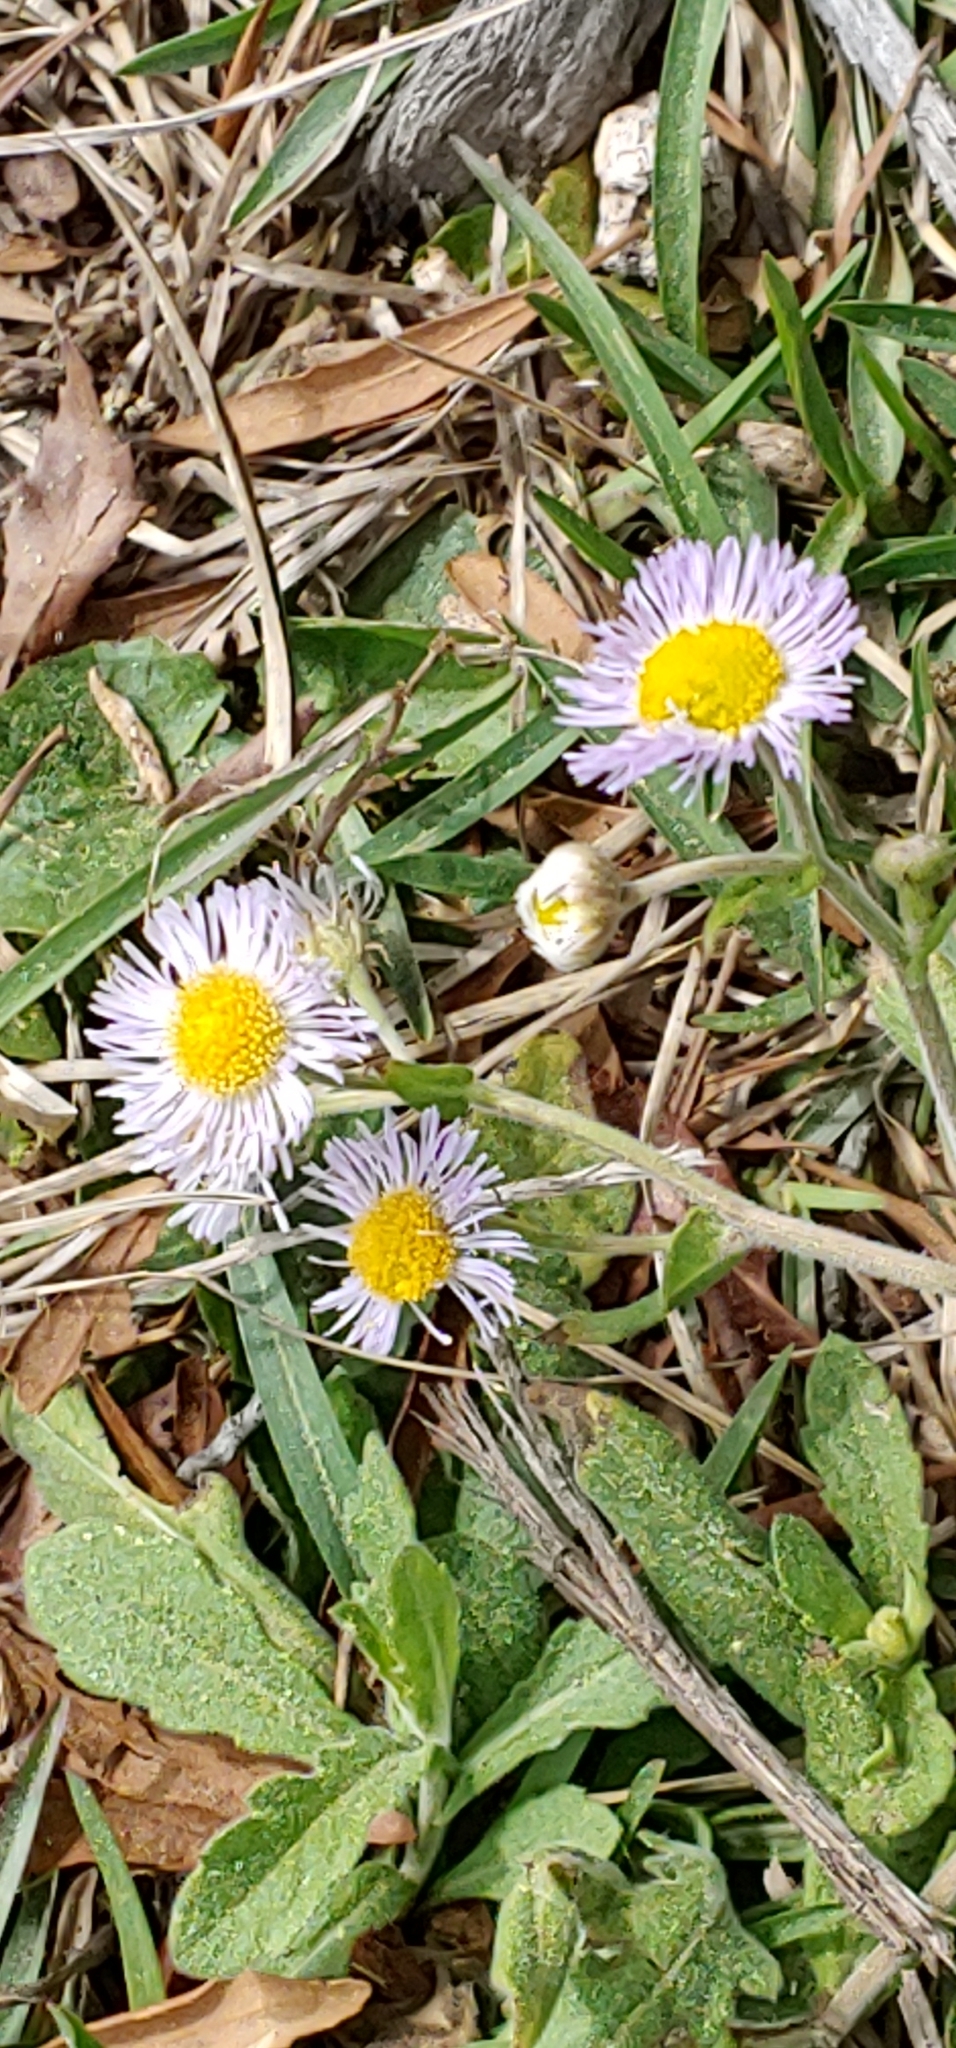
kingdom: Plantae
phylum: Tracheophyta
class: Magnoliopsida
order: Asterales
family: Asteraceae
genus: Erigeron
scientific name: Erigeron quercifolius
